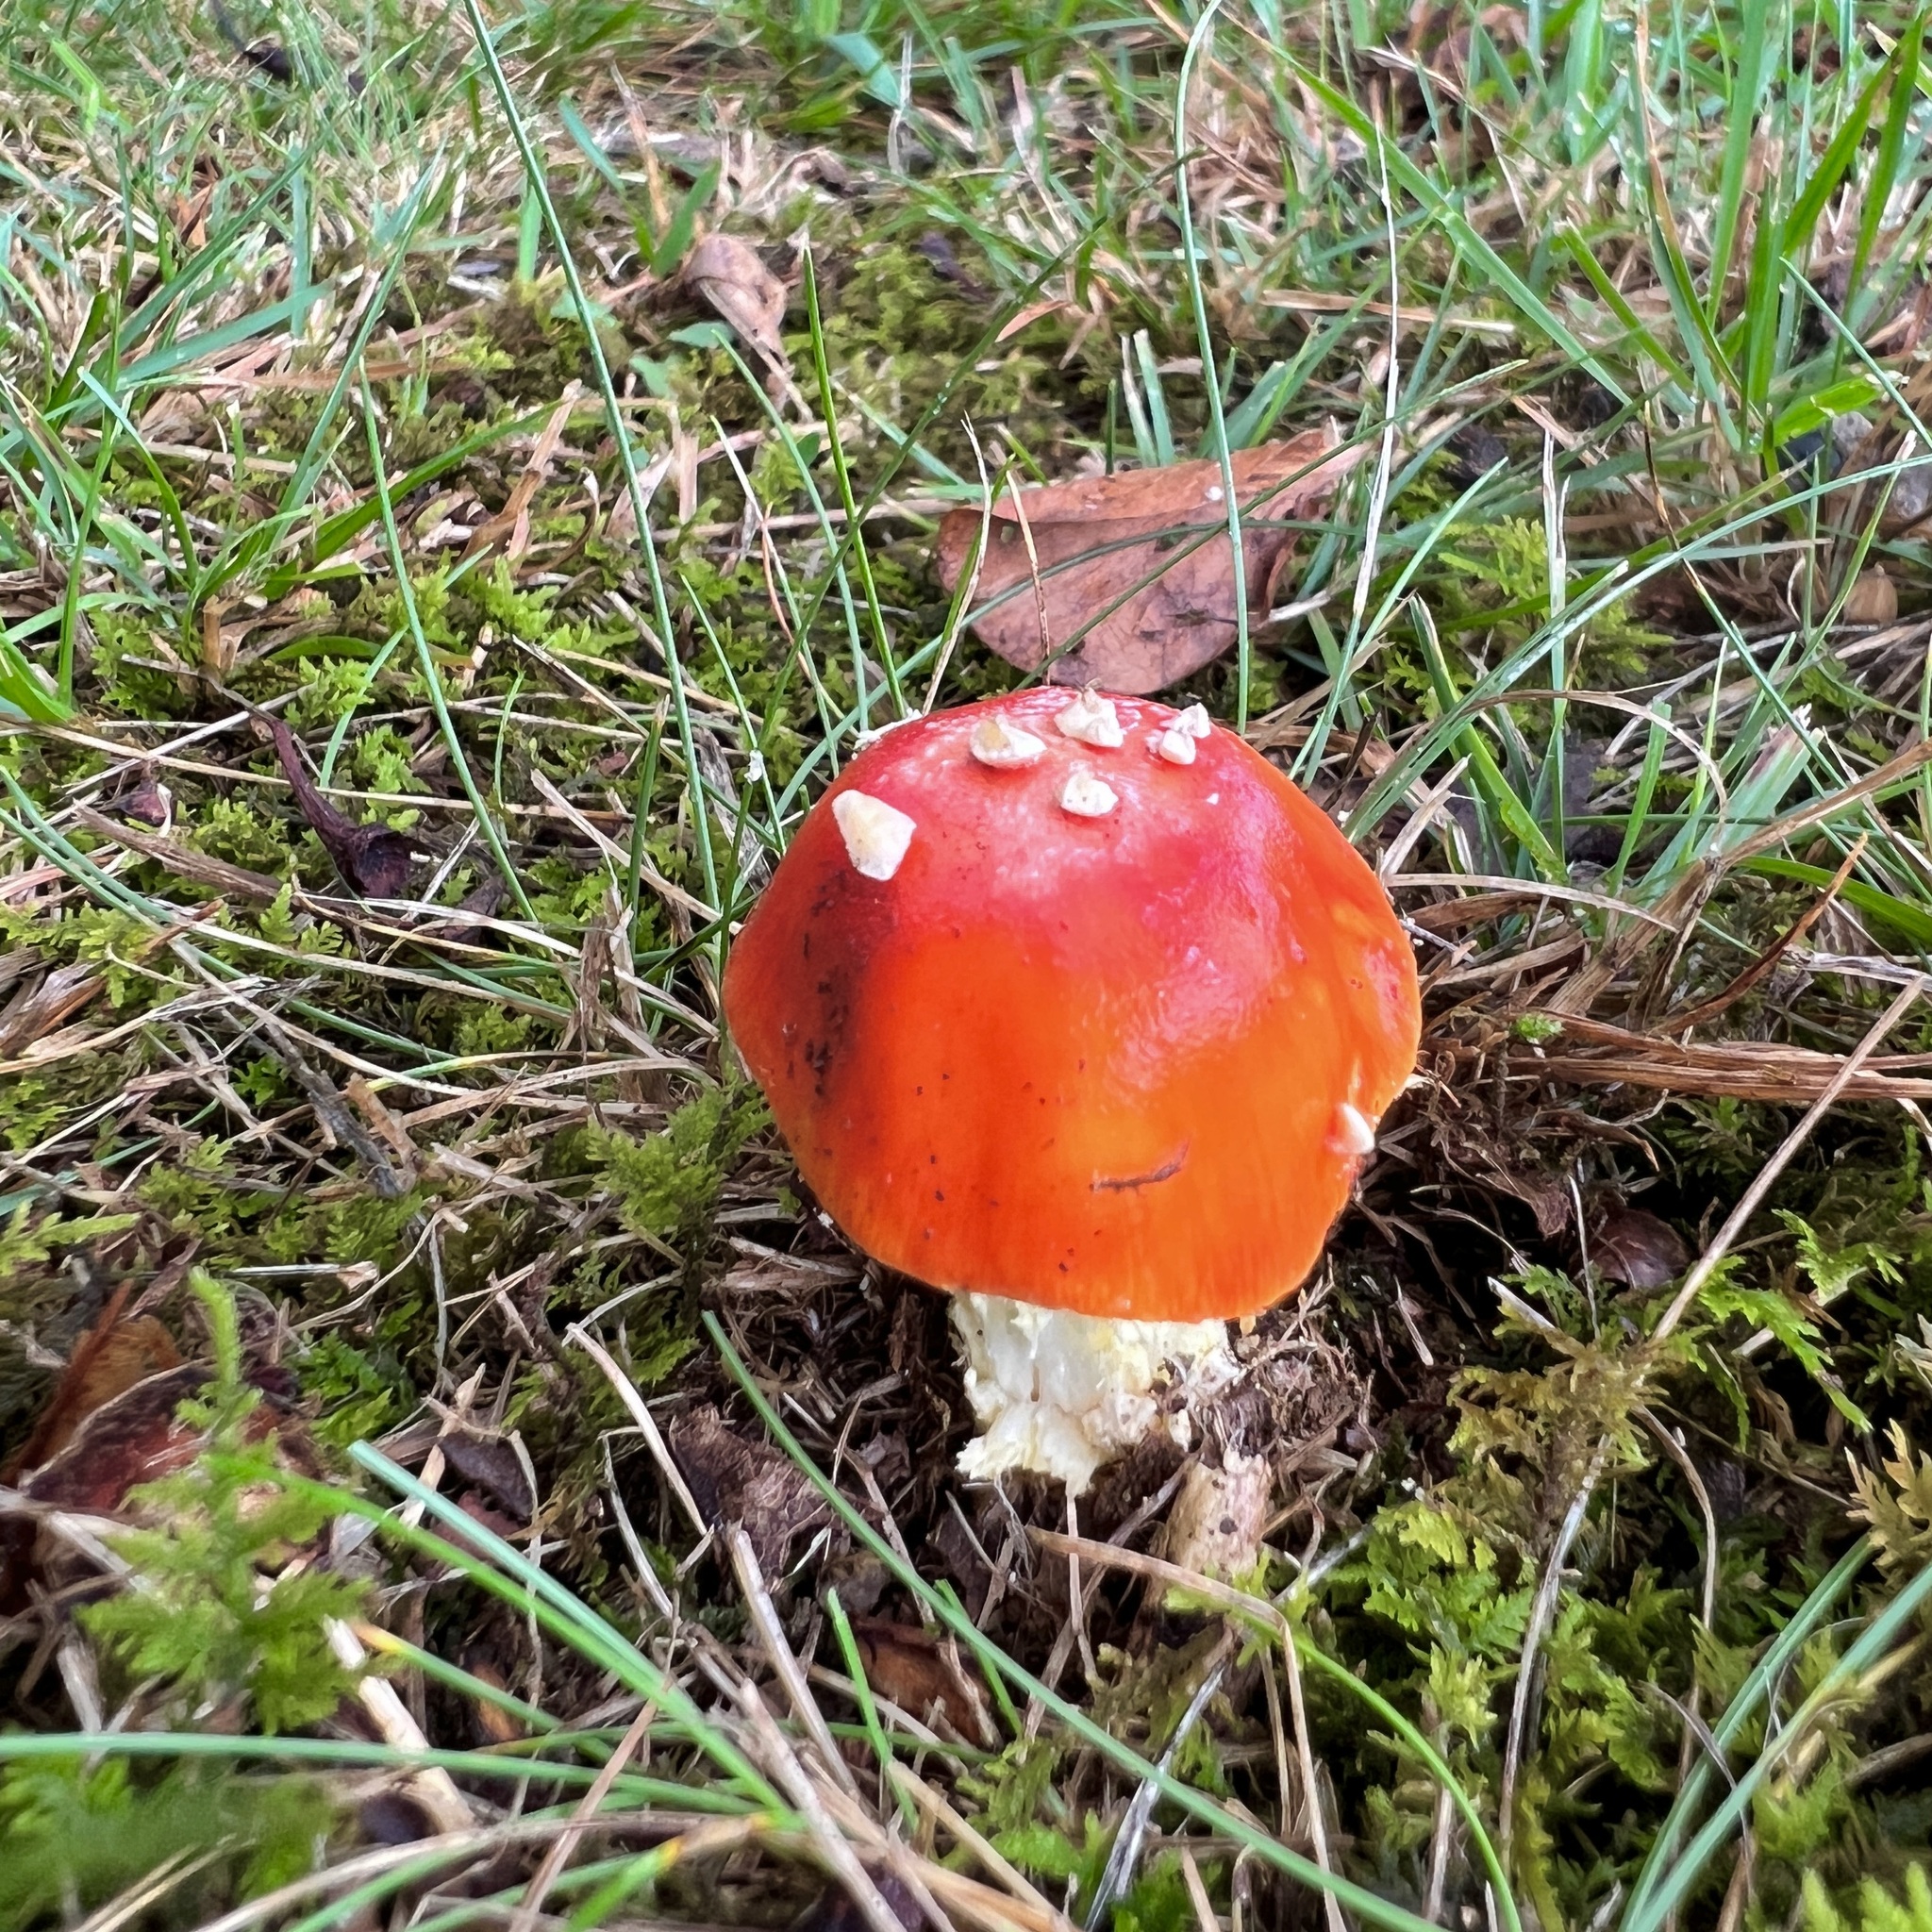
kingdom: Fungi
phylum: Basidiomycota
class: Agaricomycetes
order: Agaricales
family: Amanitaceae
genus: Amanita
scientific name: Amanita parcivolvata
